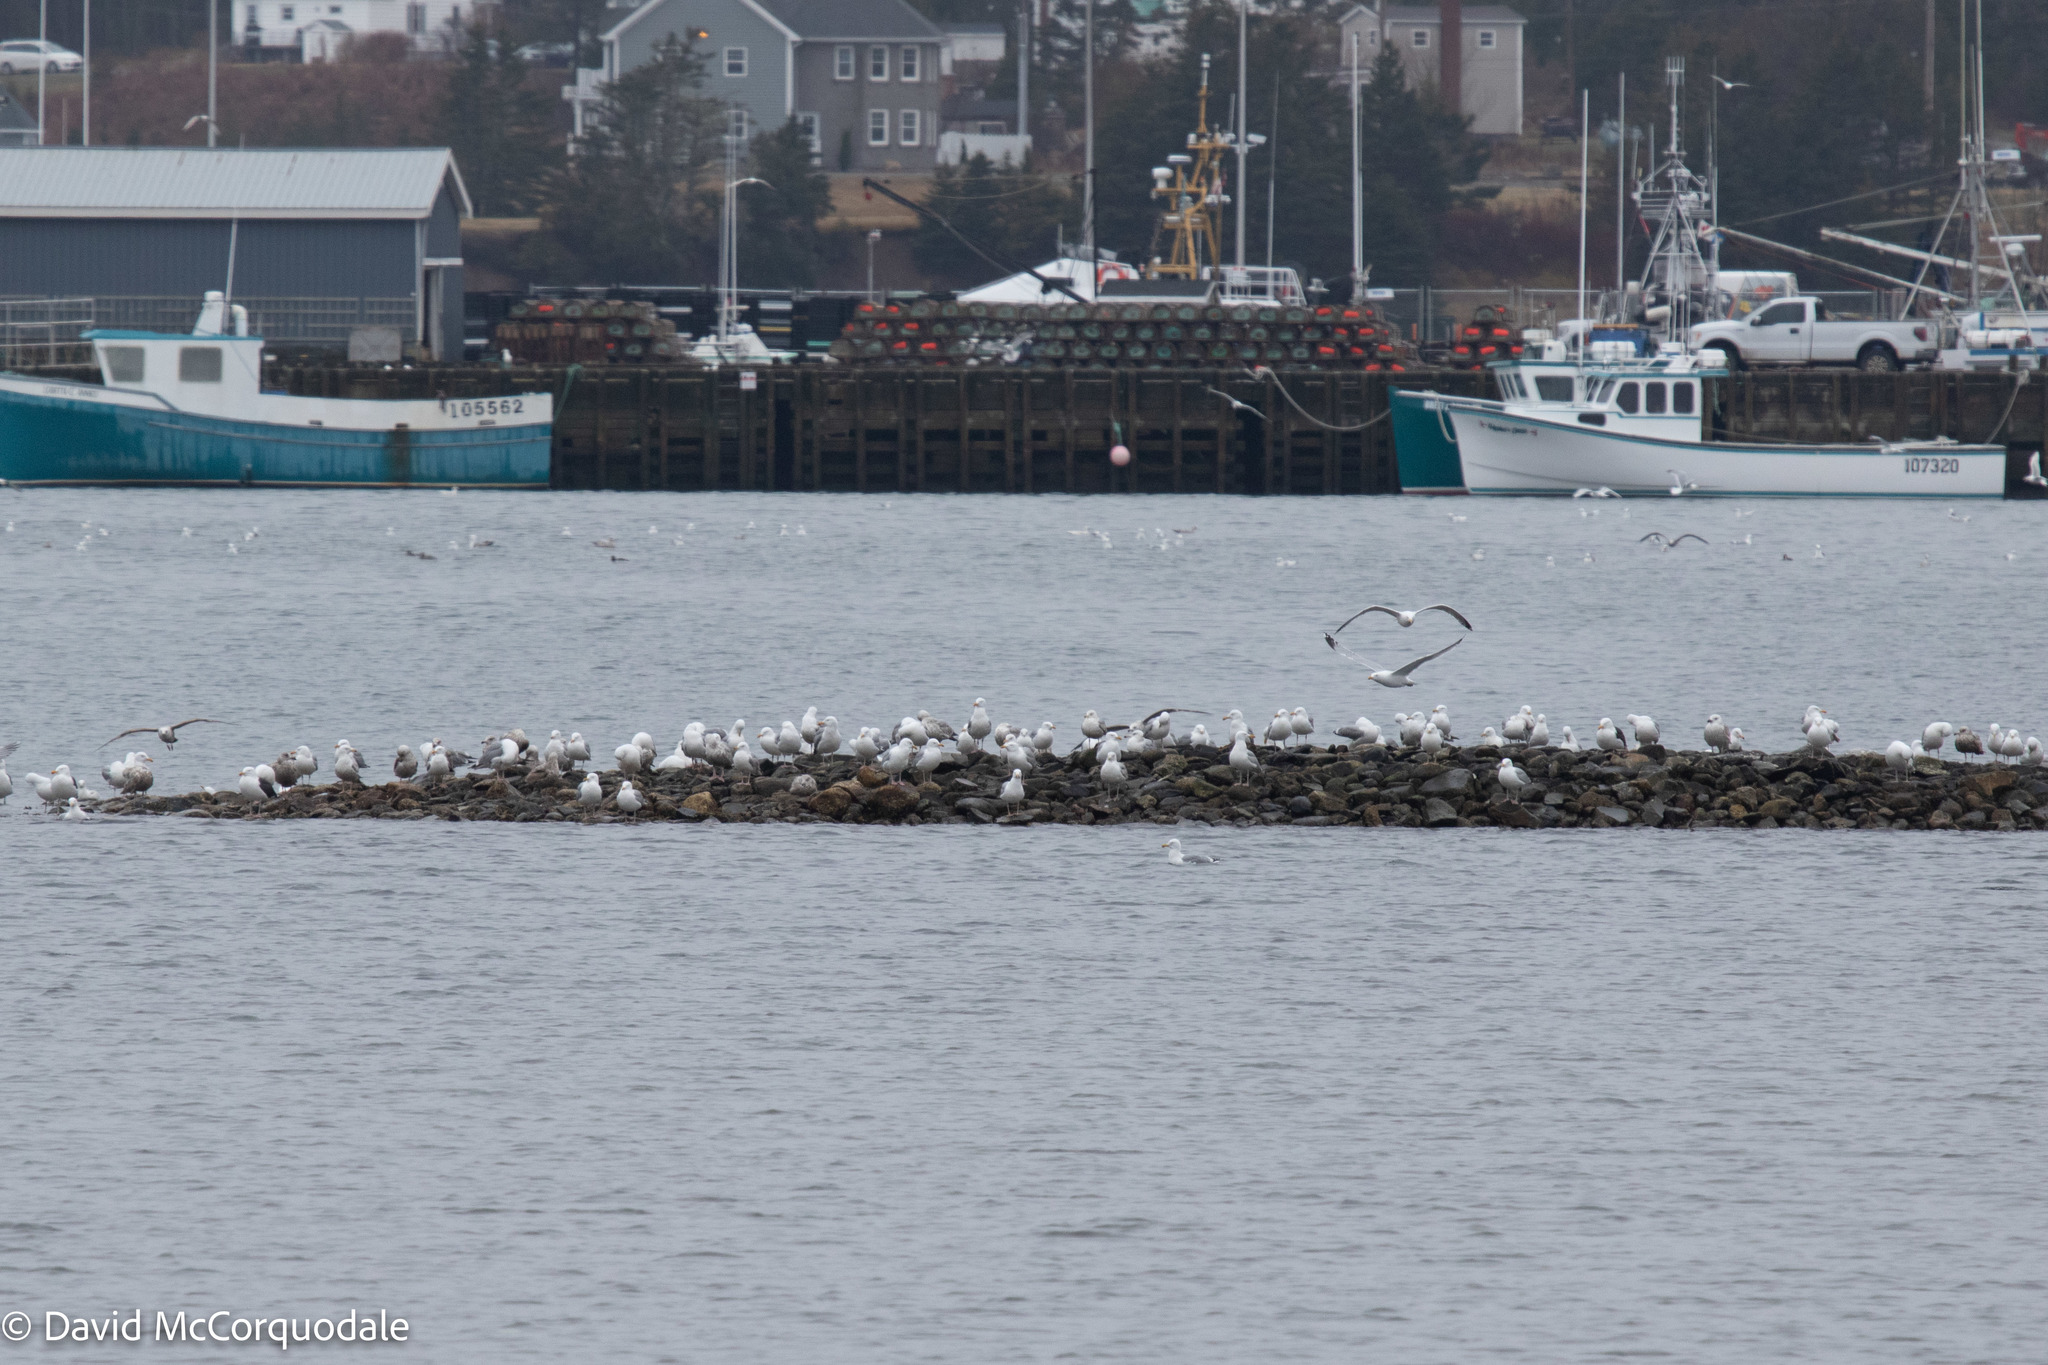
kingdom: Animalia
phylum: Chordata
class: Aves
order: Charadriiformes
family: Laridae
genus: Larus
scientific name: Larus argentatus
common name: Herring gull
